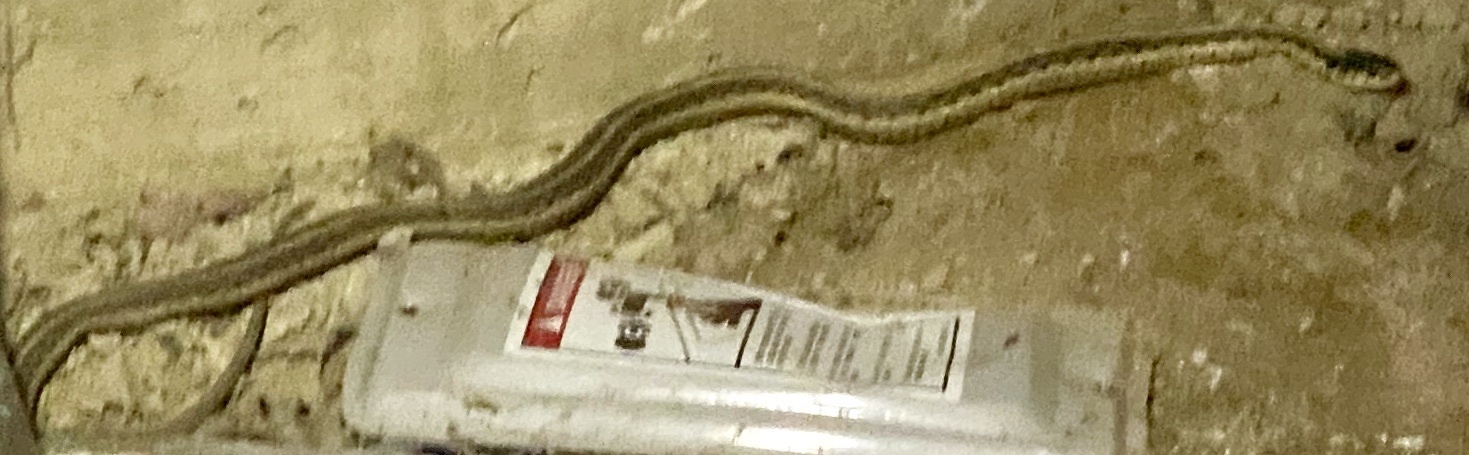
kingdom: Animalia
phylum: Chordata
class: Squamata
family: Colubridae
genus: Thamnophis
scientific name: Thamnophis sirtalis
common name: Common garter snake
